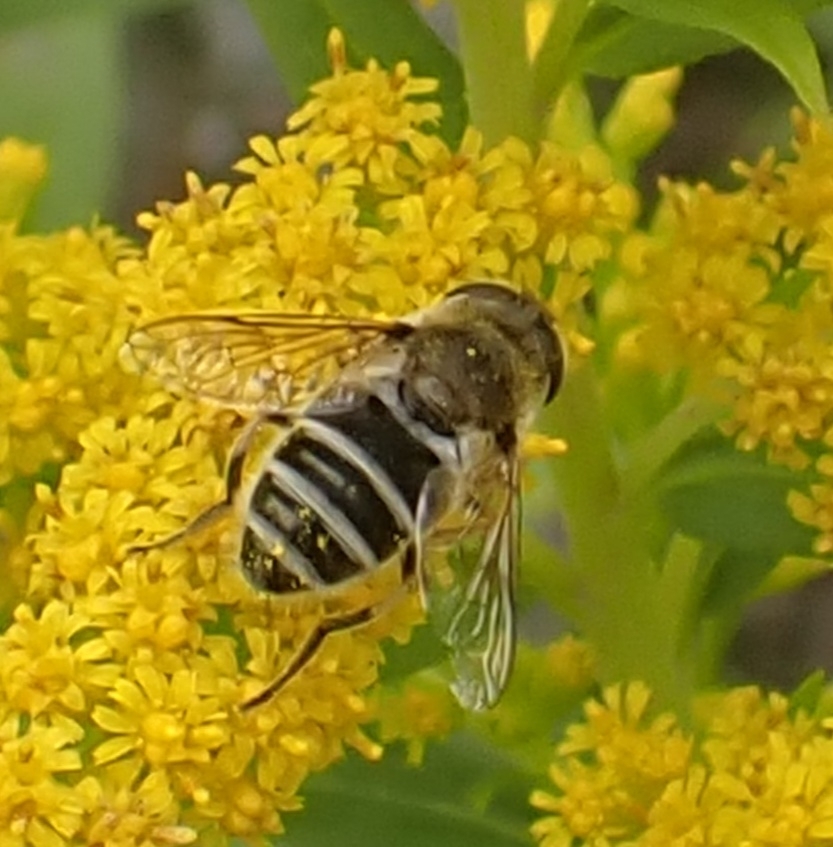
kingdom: Animalia
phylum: Arthropoda
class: Insecta
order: Diptera
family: Syrphidae
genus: Eristalis
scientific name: Eristalis arbustorum
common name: Hover fly
